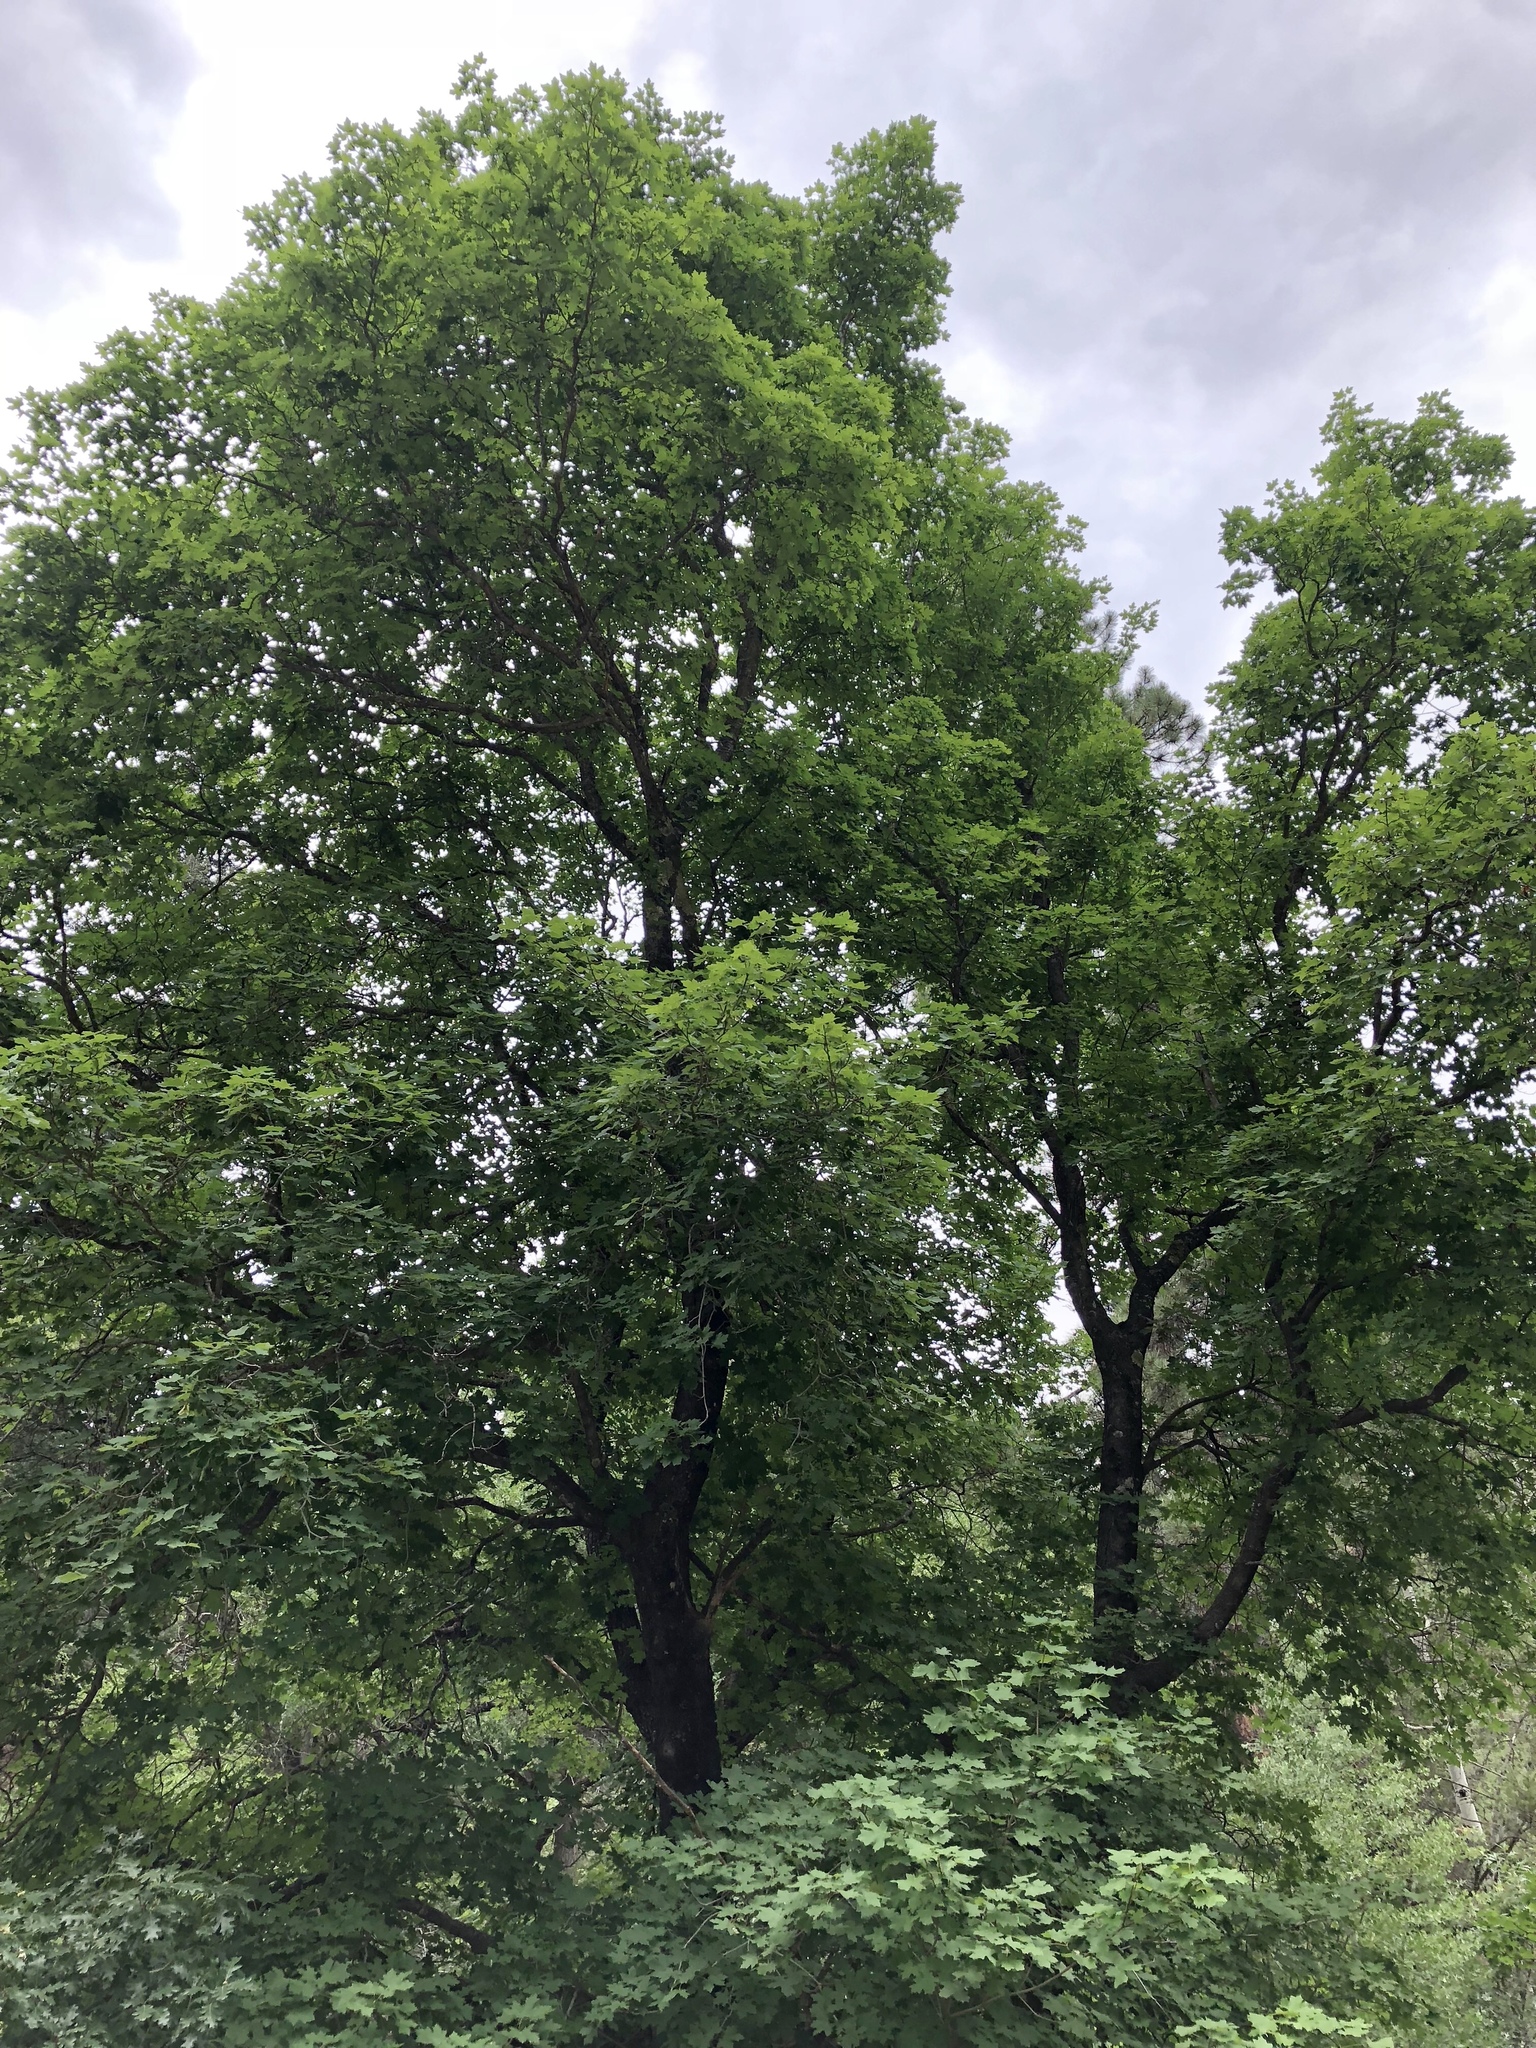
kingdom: Plantae
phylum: Tracheophyta
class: Magnoliopsida
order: Sapindales
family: Sapindaceae
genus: Acer
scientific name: Acer grandidentatum
